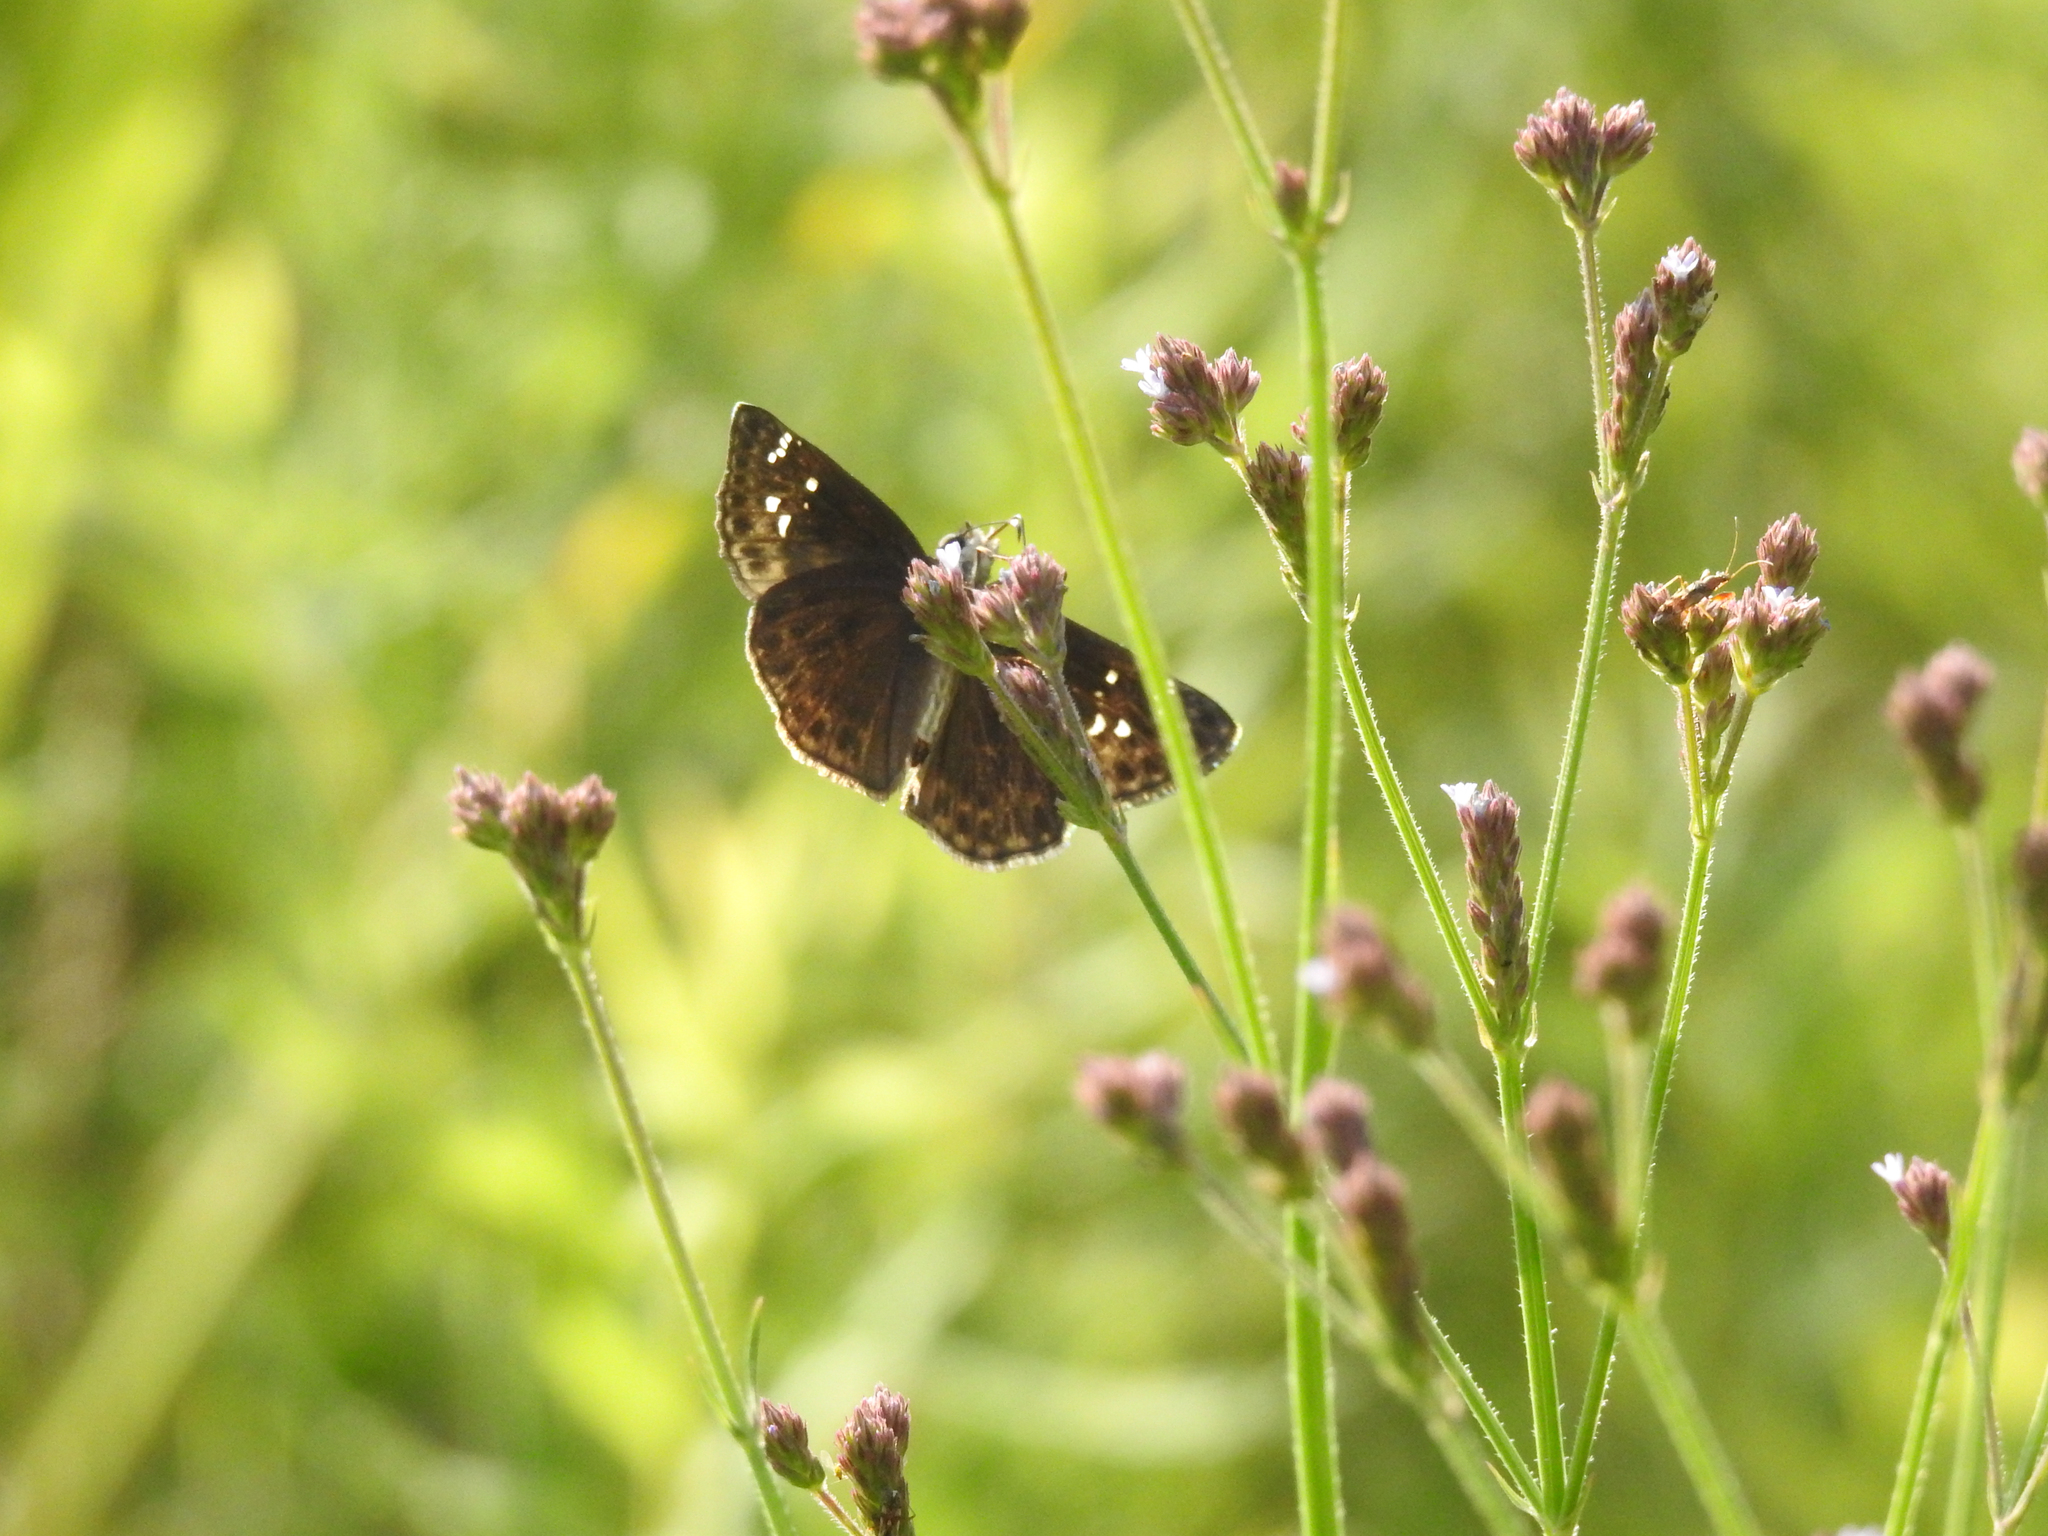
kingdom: Animalia
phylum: Arthropoda
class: Insecta
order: Lepidoptera
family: Hesperiidae
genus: Erynnis
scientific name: Erynnis horatius
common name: Horace's duskywing
